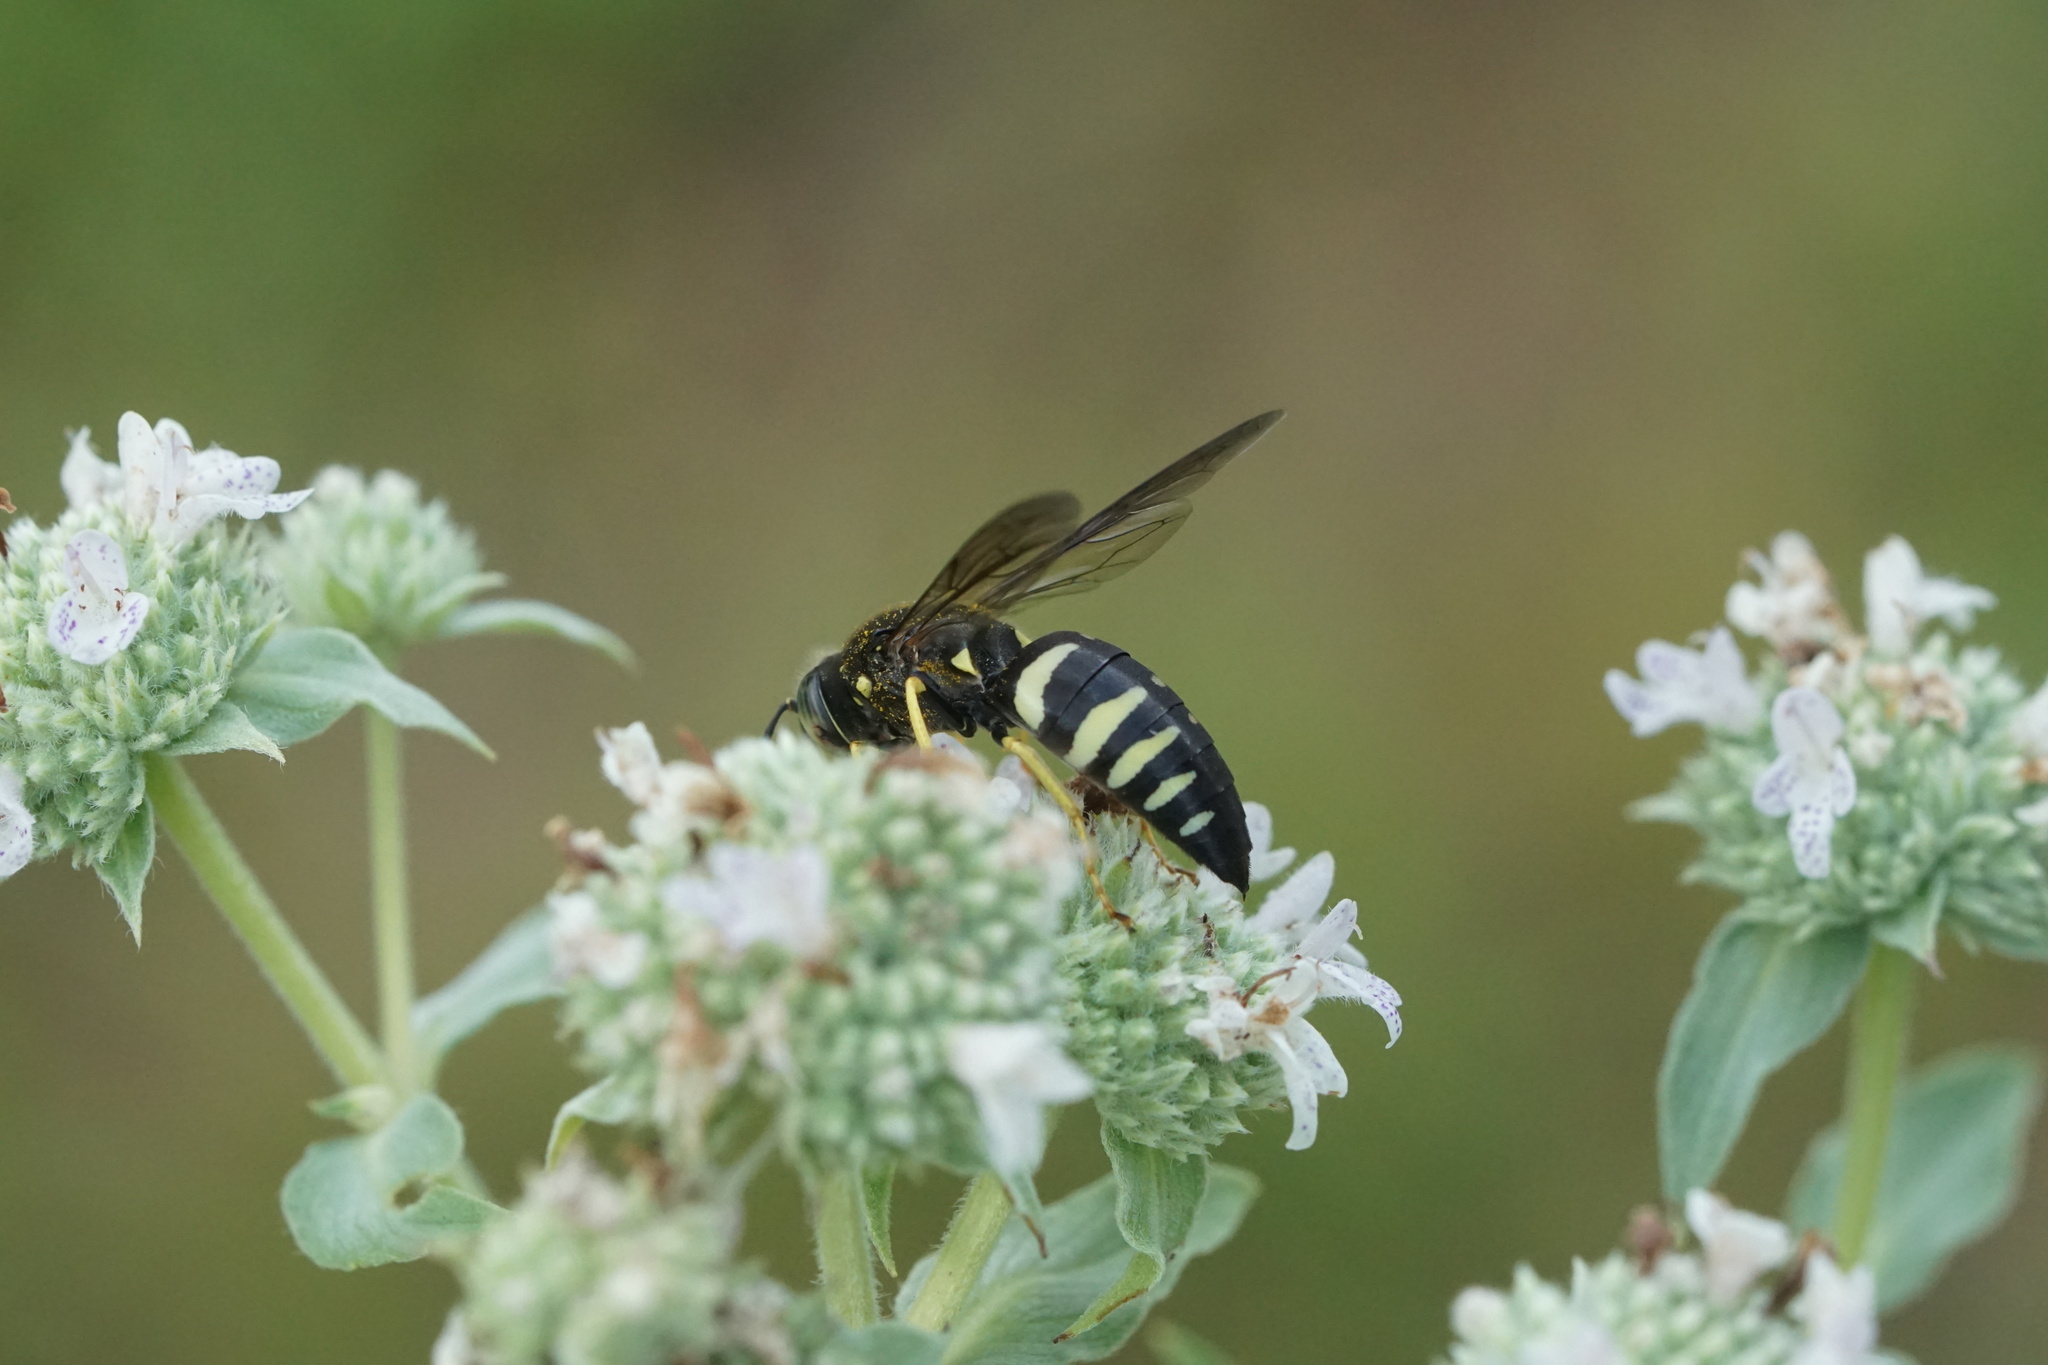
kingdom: Animalia
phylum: Arthropoda
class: Insecta
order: Hymenoptera
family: Crabronidae
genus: Bicyrtes
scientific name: Bicyrtes quadrifasciatus
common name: Four-banded stink bug hunter wasp
